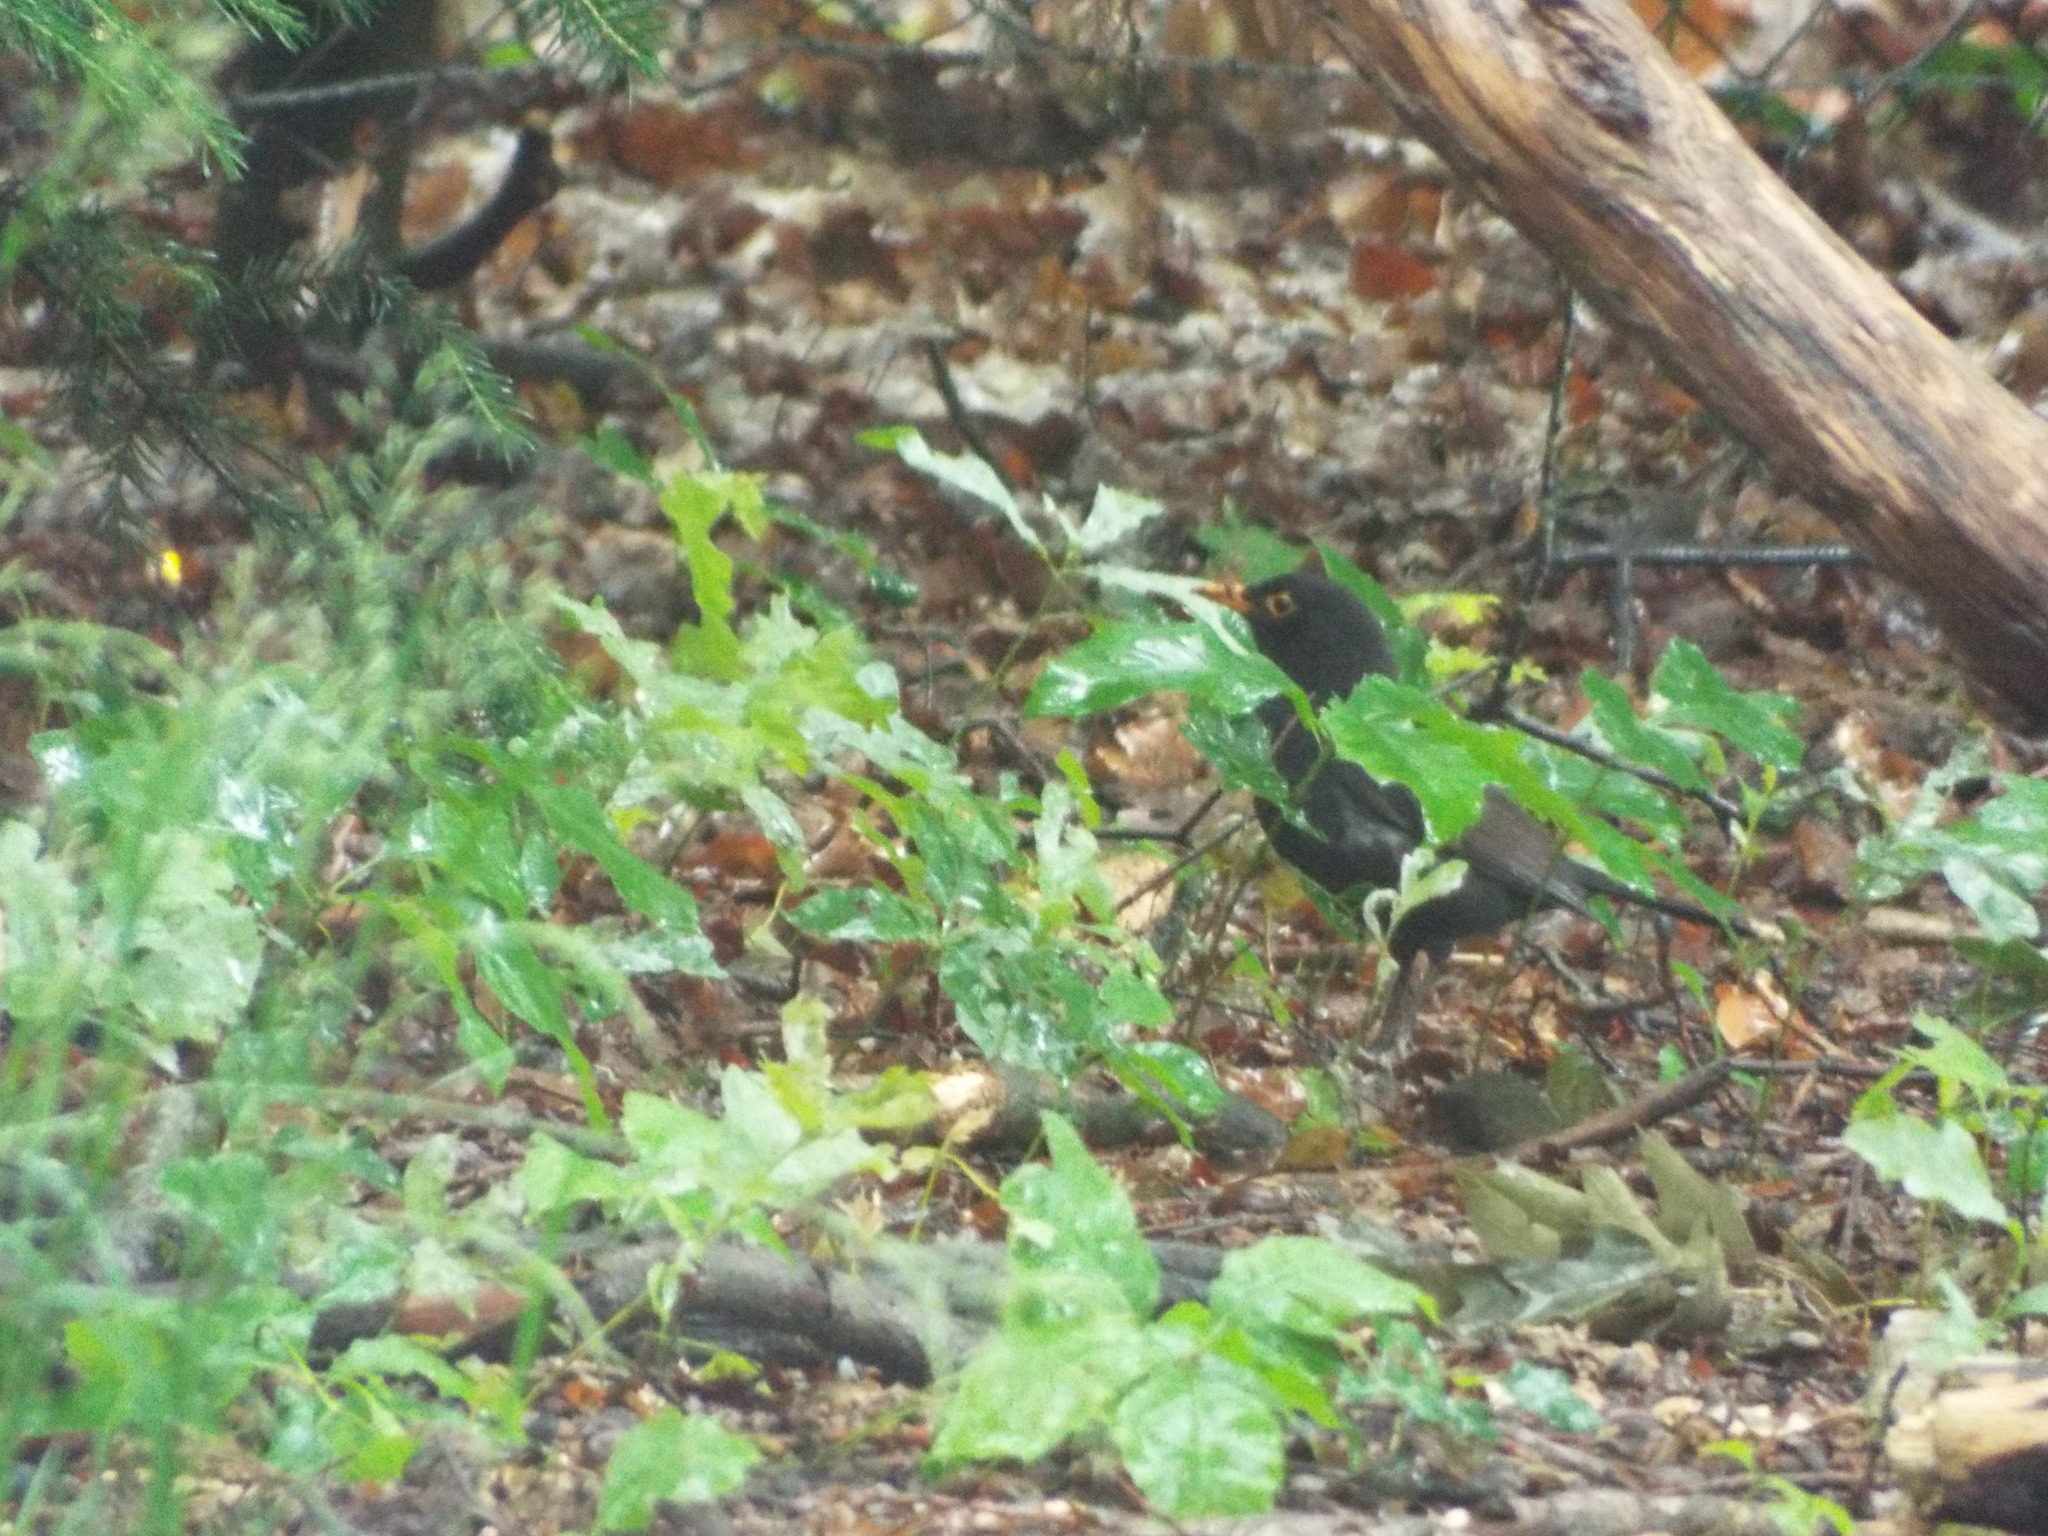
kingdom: Animalia
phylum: Chordata
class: Aves
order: Passeriformes
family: Turdidae
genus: Turdus
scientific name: Turdus merula
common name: Common blackbird
